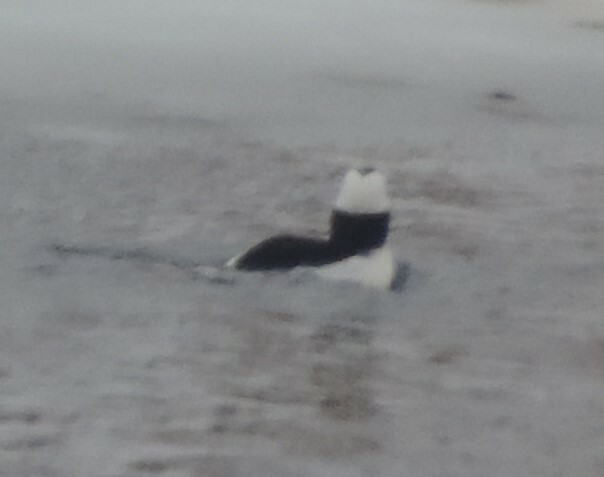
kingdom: Animalia
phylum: Chordata
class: Aves
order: Anseriformes
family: Anatidae
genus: Bucephala
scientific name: Bucephala albeola
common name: Bufflehead
